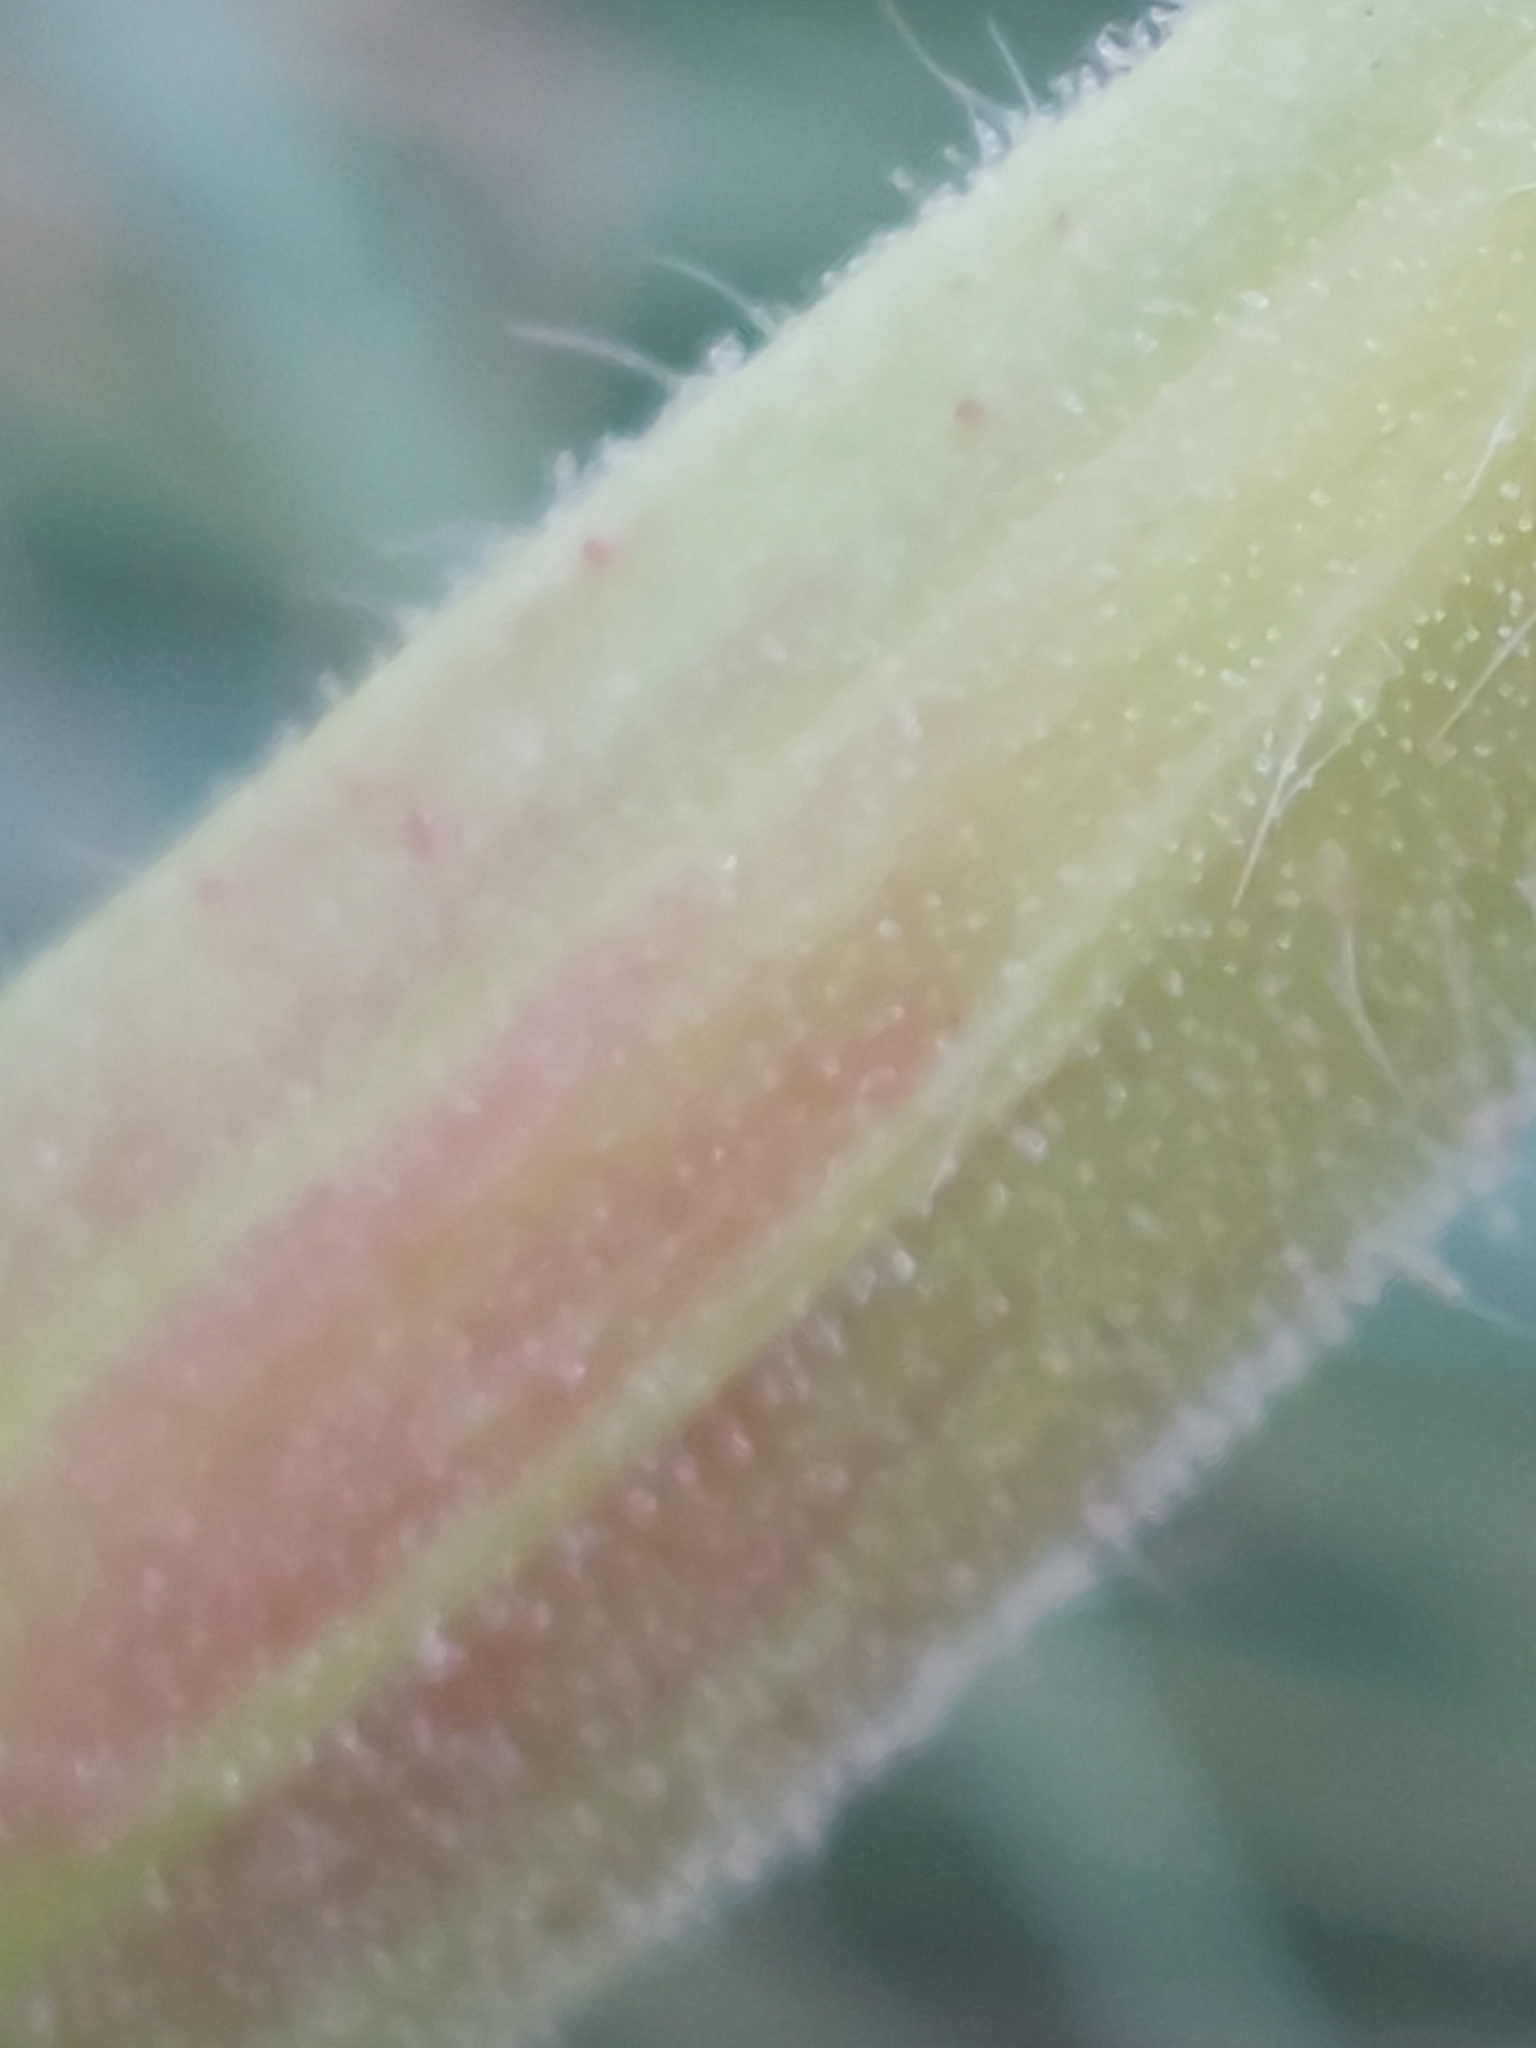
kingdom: Plantae
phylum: Tracheophyta
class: Magnoliopsida
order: Myrtales
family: Onagraceae
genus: Oenothera
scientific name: Oenothera glazioviana
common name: Large-flowered evening-primrose
